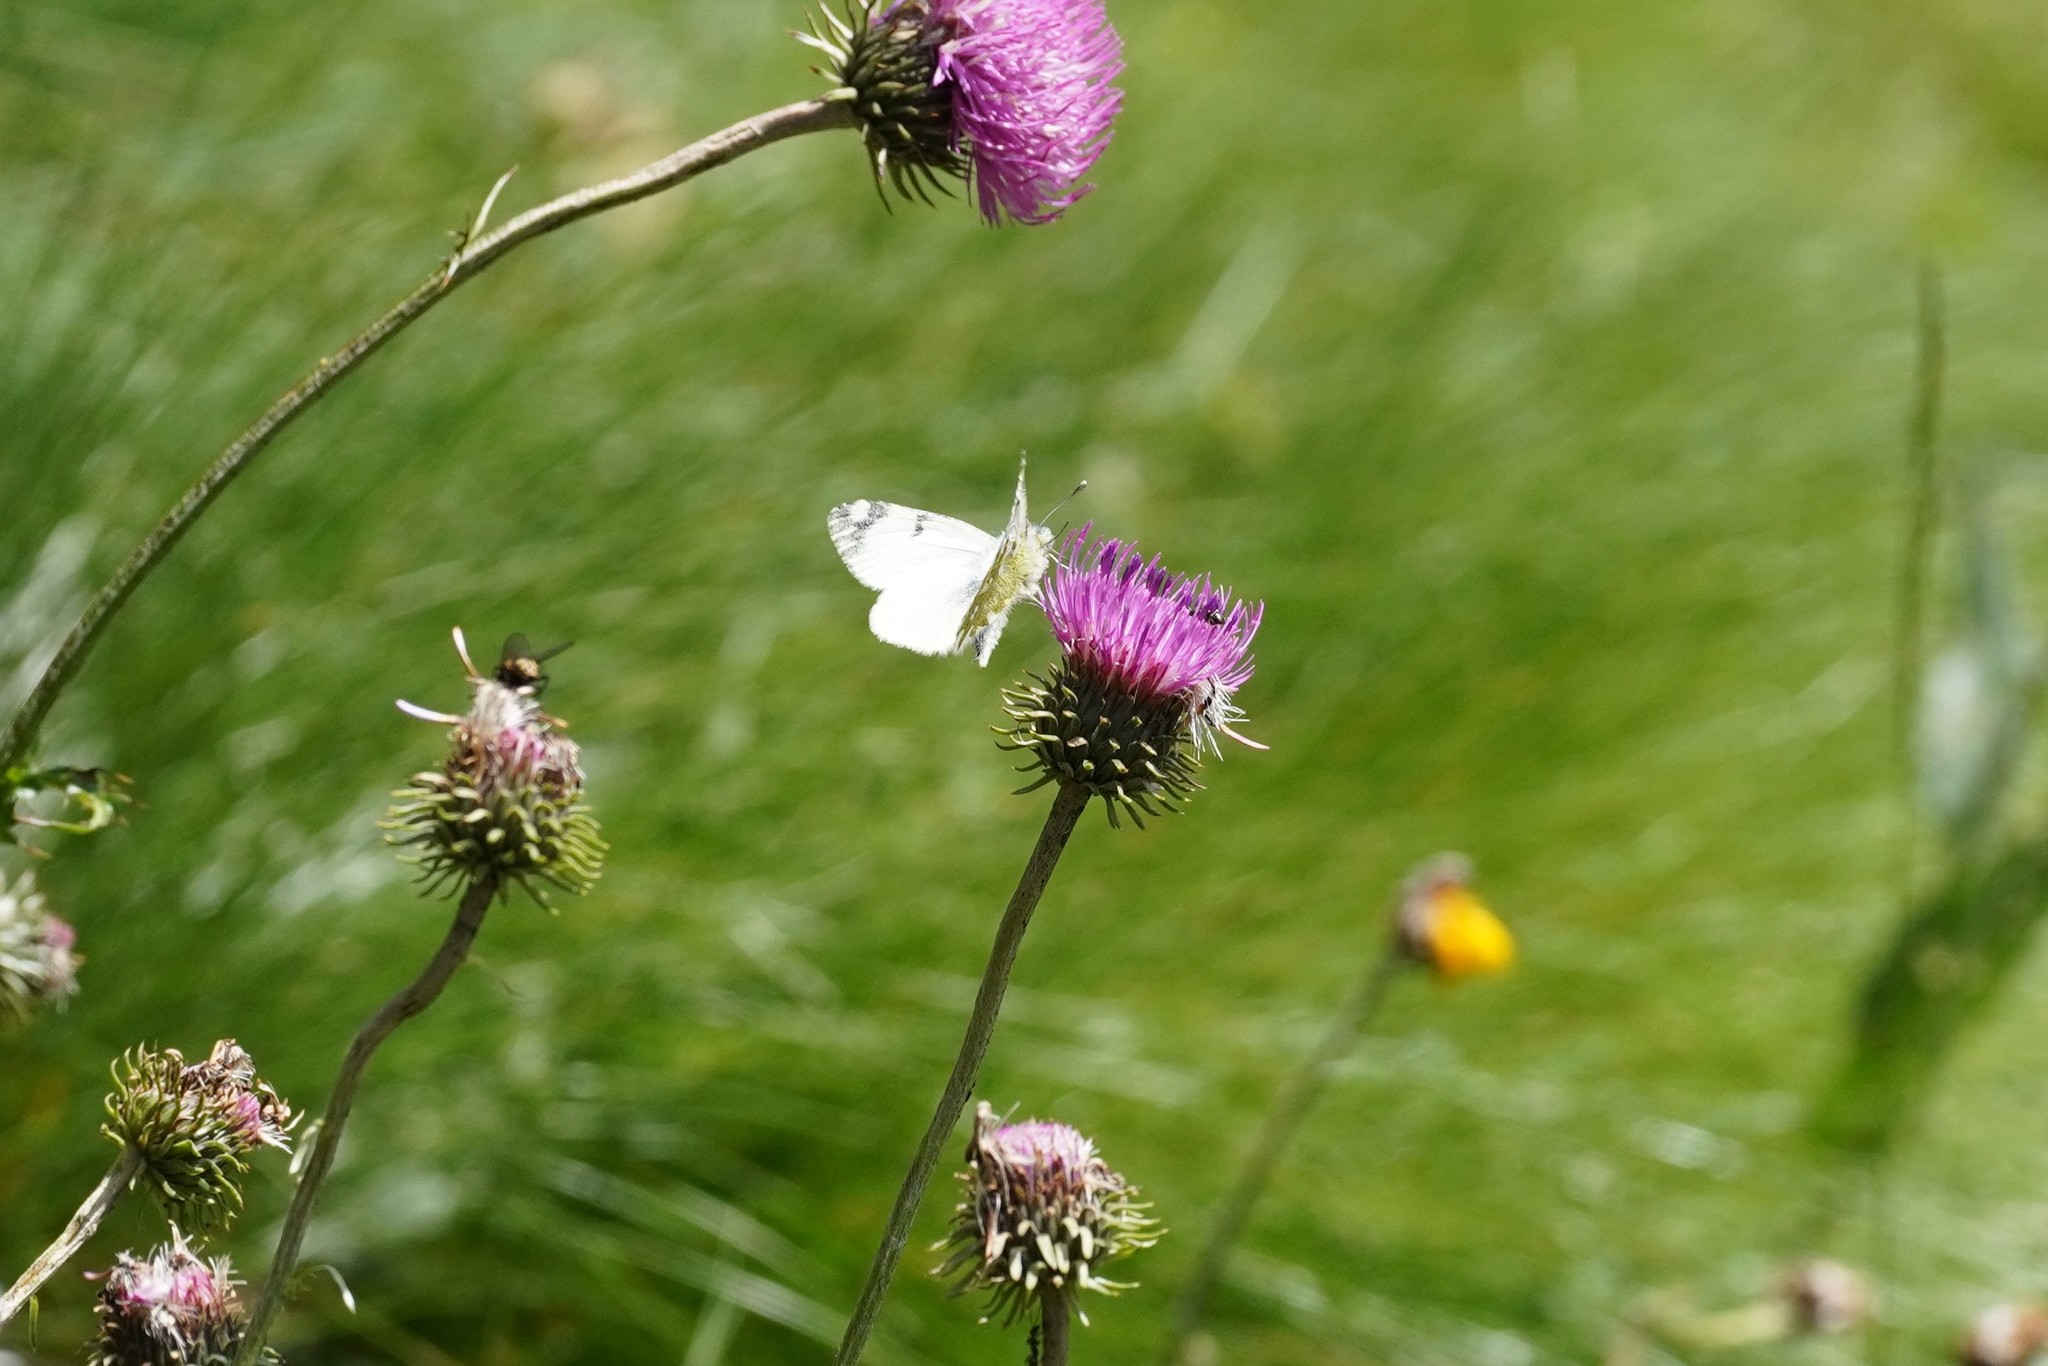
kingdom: Animalia
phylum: Arthropoda
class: Insecta
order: Lepidoptera
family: Pieridae
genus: Euchloe
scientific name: Euchloe simplonia
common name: Mountain dappled white
